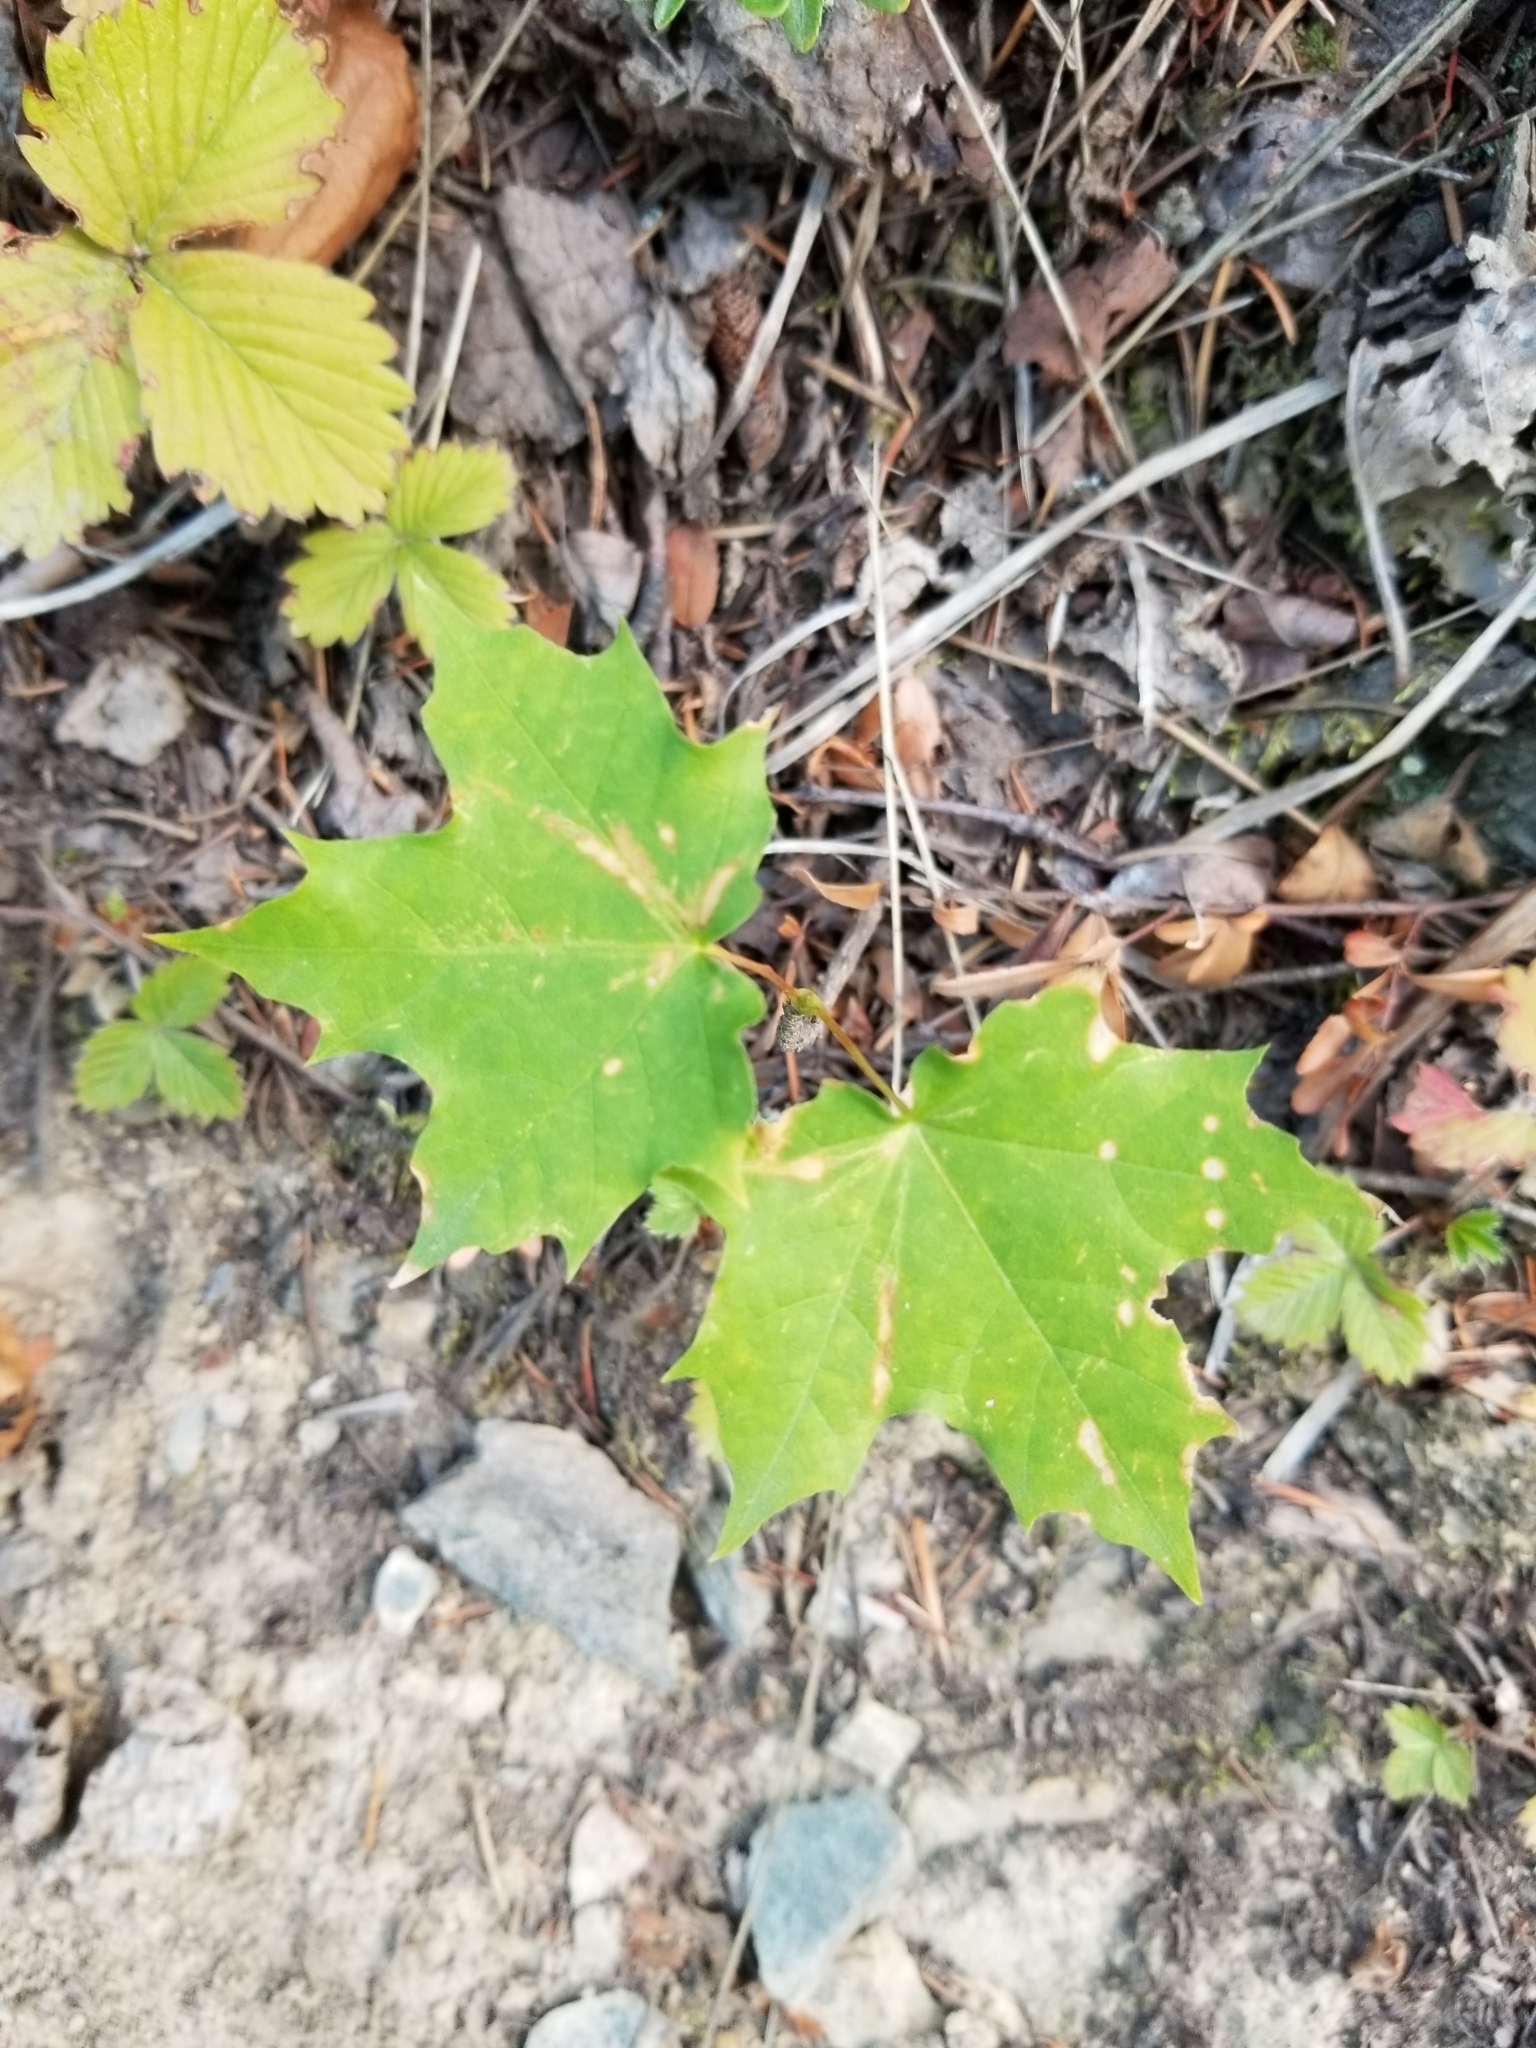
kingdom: Plantae
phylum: Tracheophyta
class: Magnoliopsida
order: Sapindales
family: Sapindaceae
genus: Acer
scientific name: Acer platanoides
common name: Norway maple
